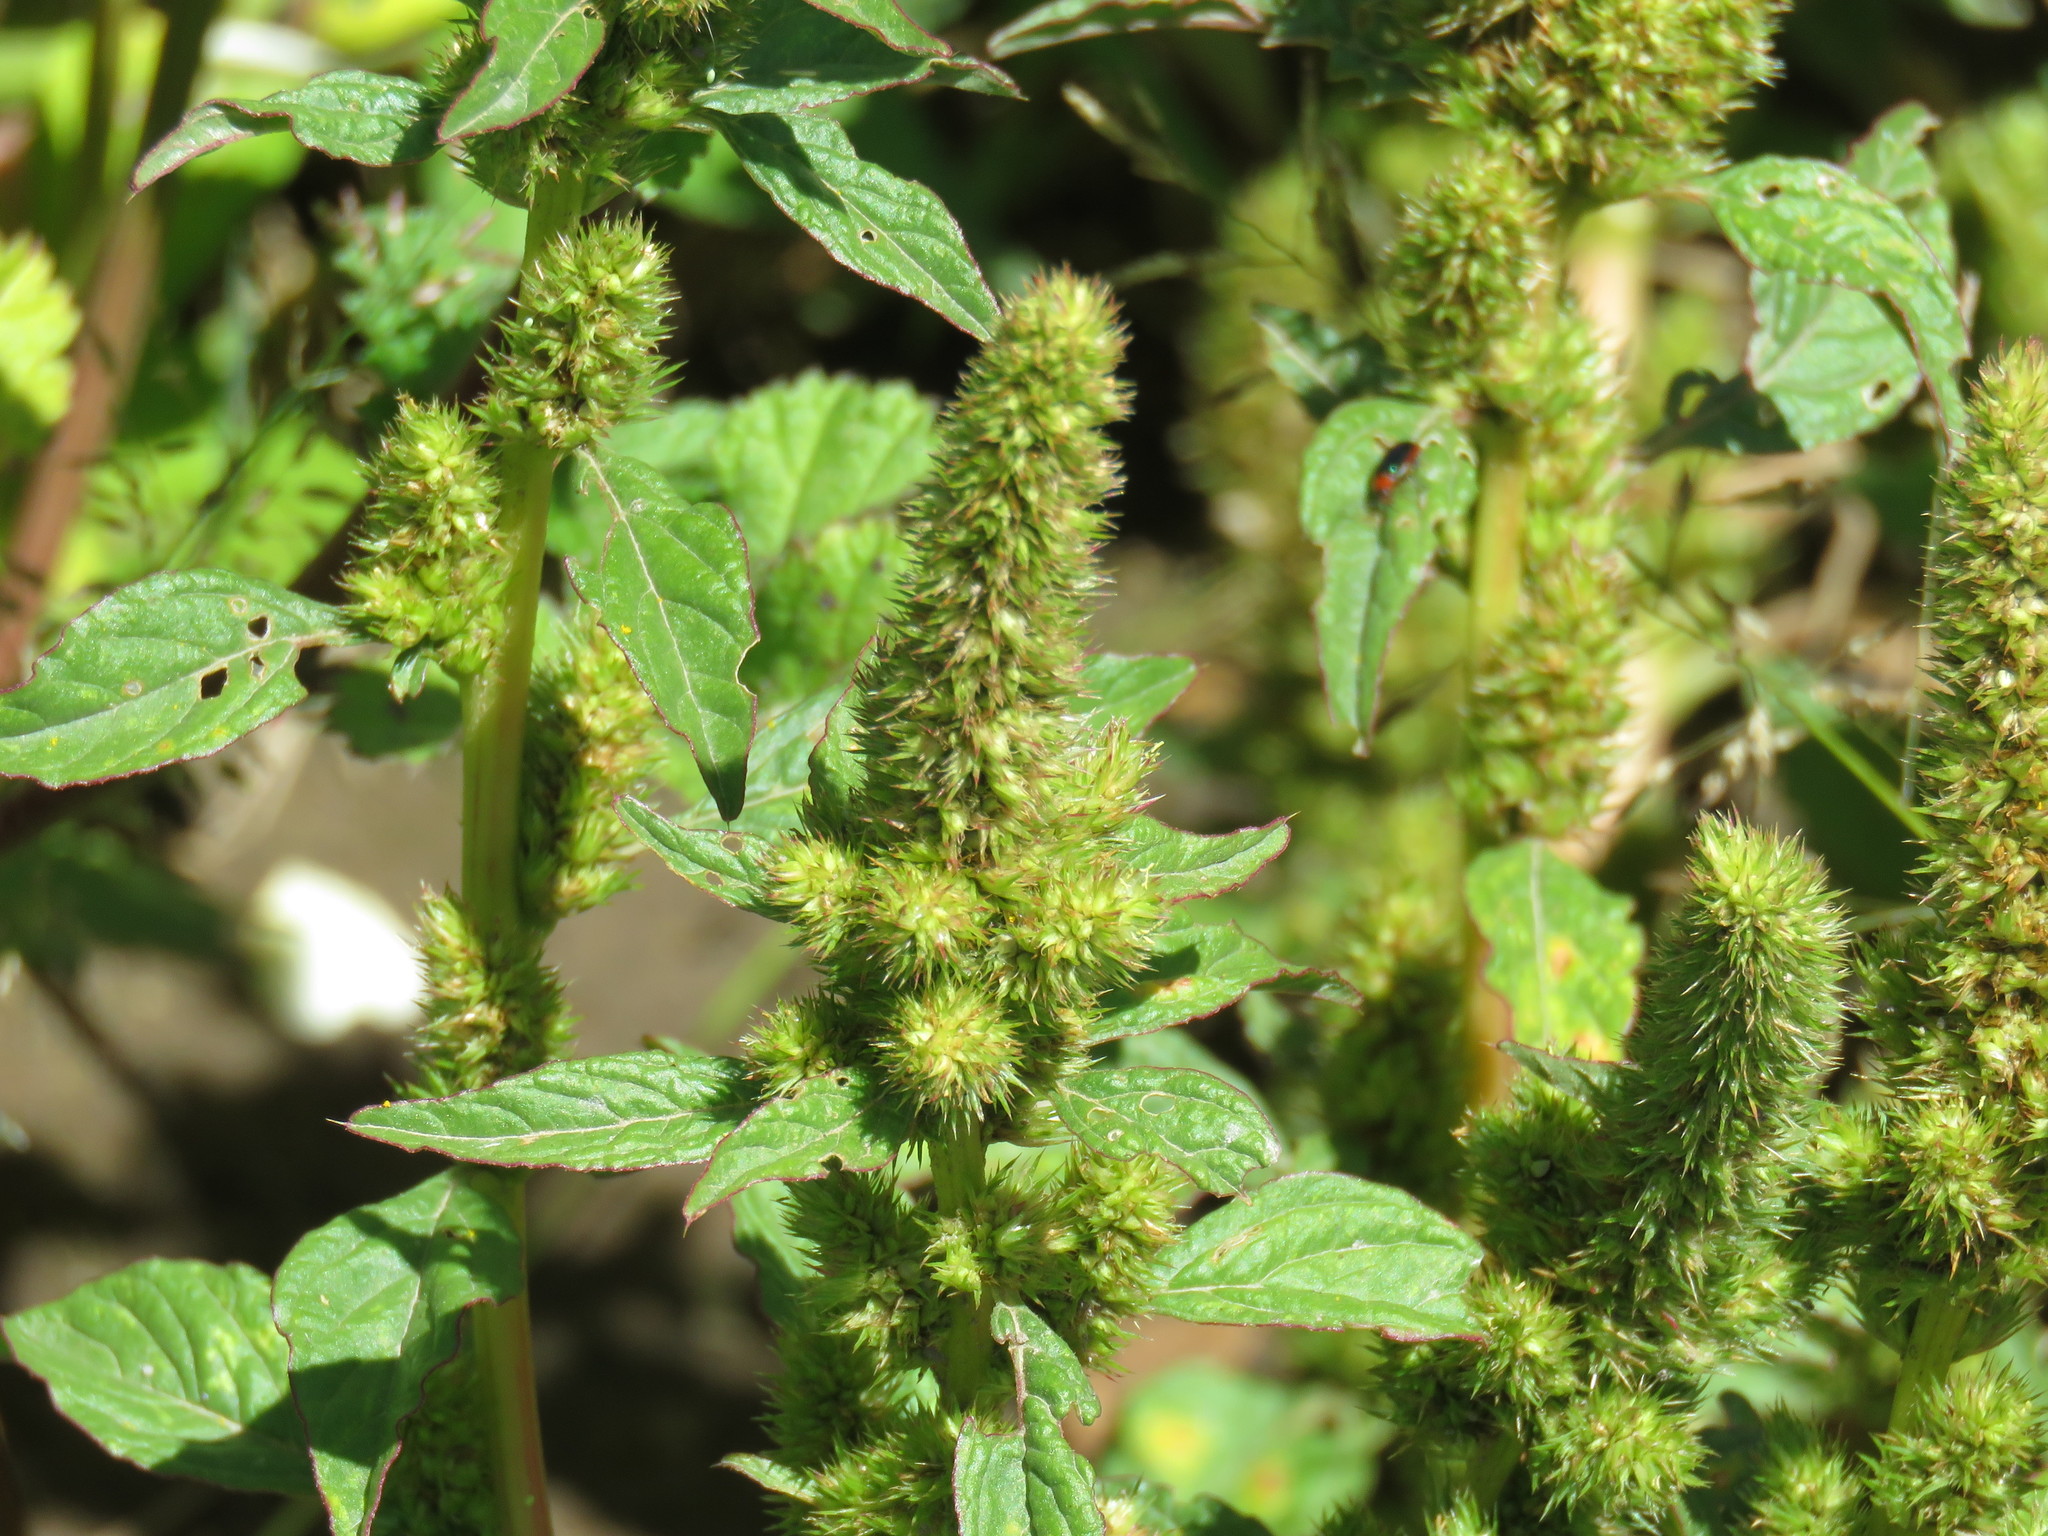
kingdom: Plantae
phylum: Tracheophyta
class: Magnoliopsida
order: Caryophyllales
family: Amaranthaceae
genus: Amaranthus
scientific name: Amaranthus hybridus
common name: Green amaranth
